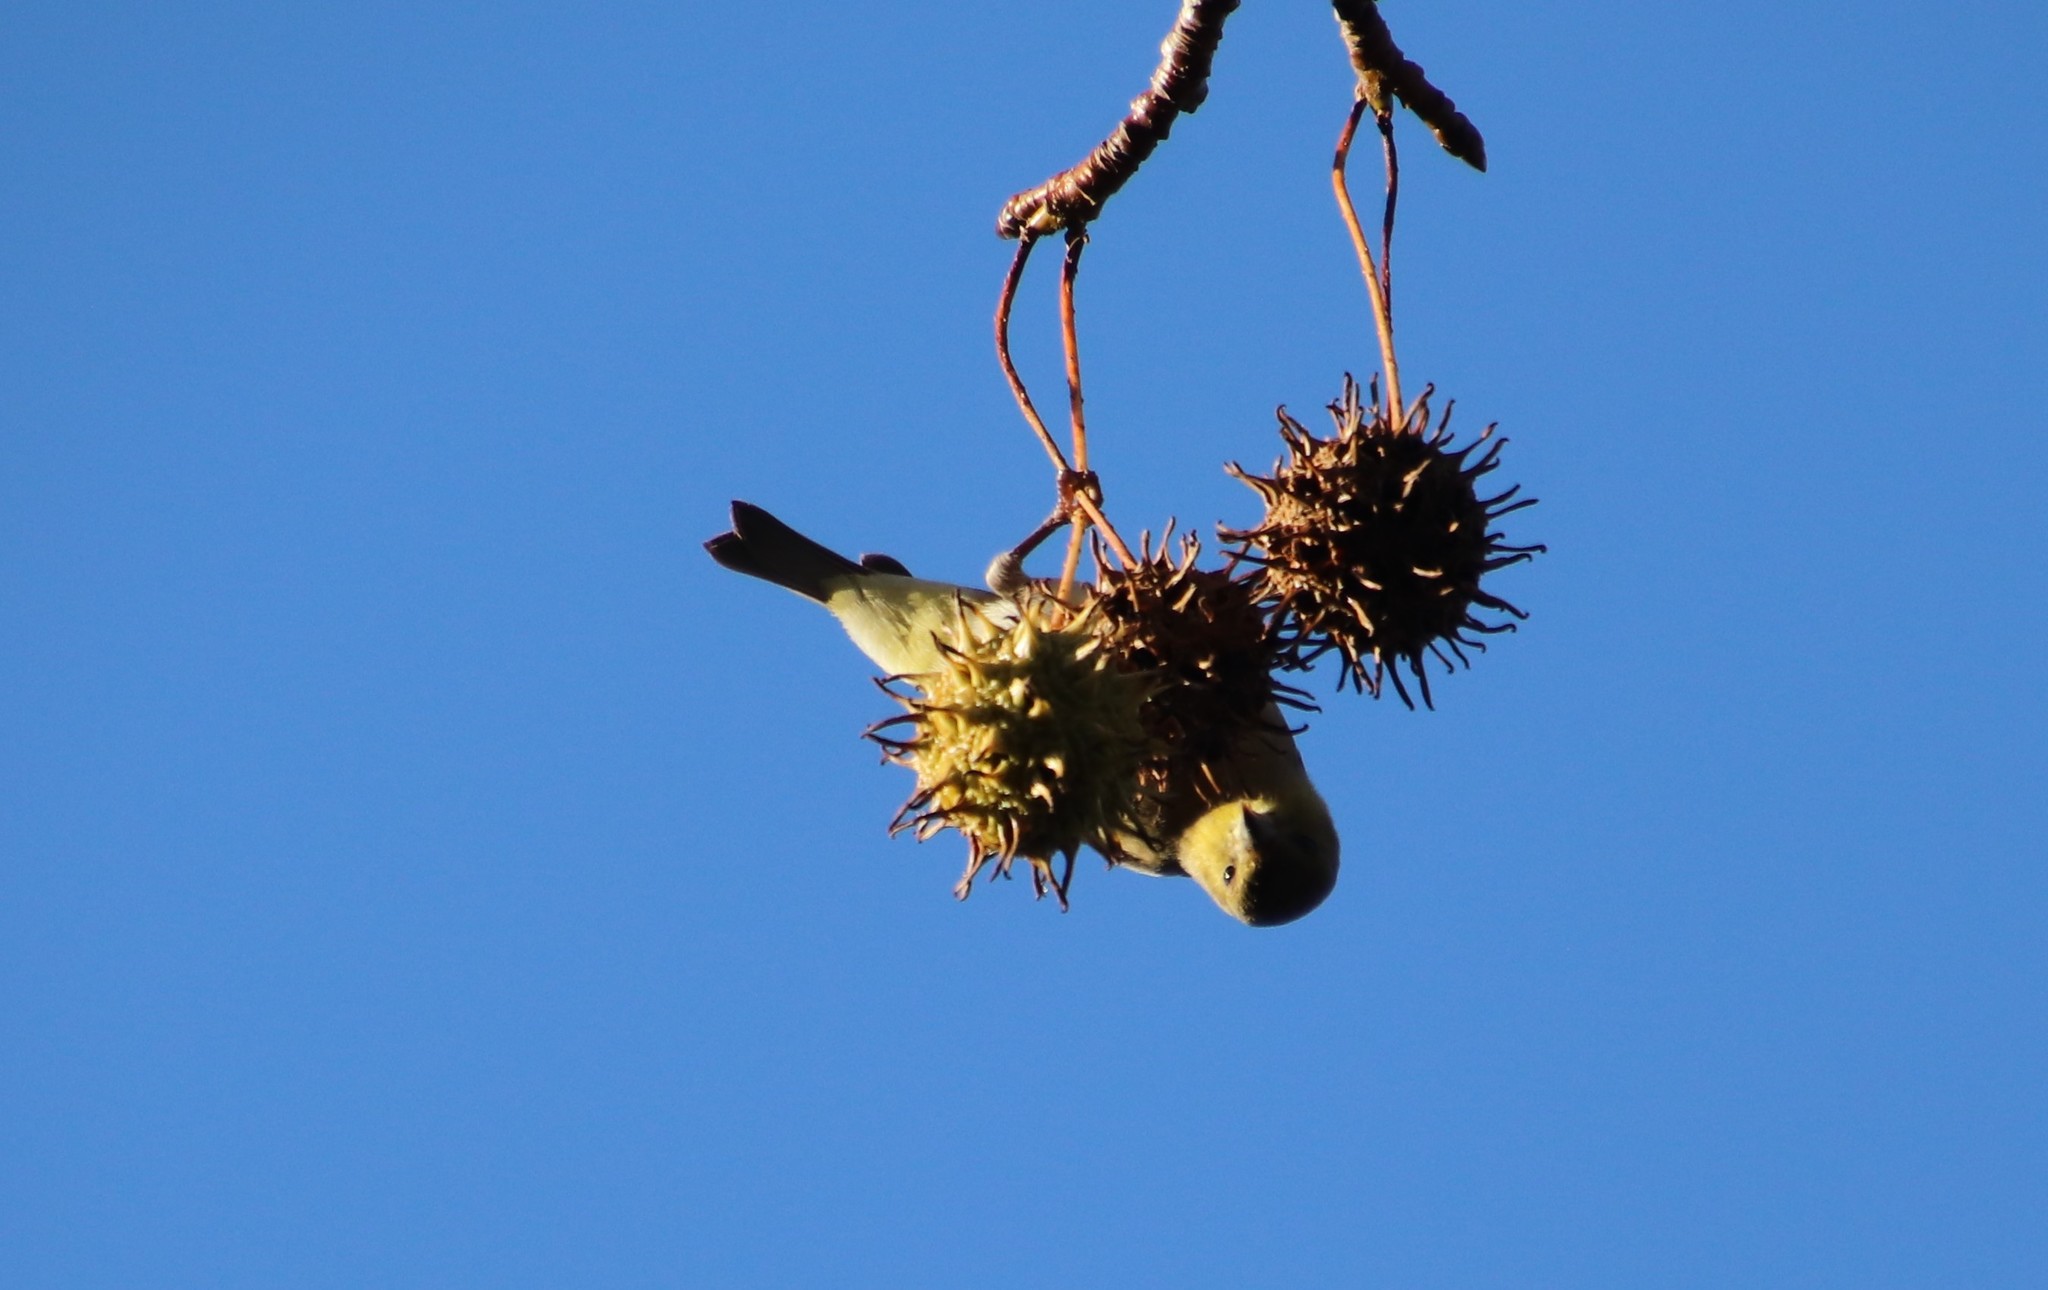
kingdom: Animalia
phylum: Chordata
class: Aves
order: Passeriformes
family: Fringillidae
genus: Spinus
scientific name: Spinus psaltria
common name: Lesser goldfinch
